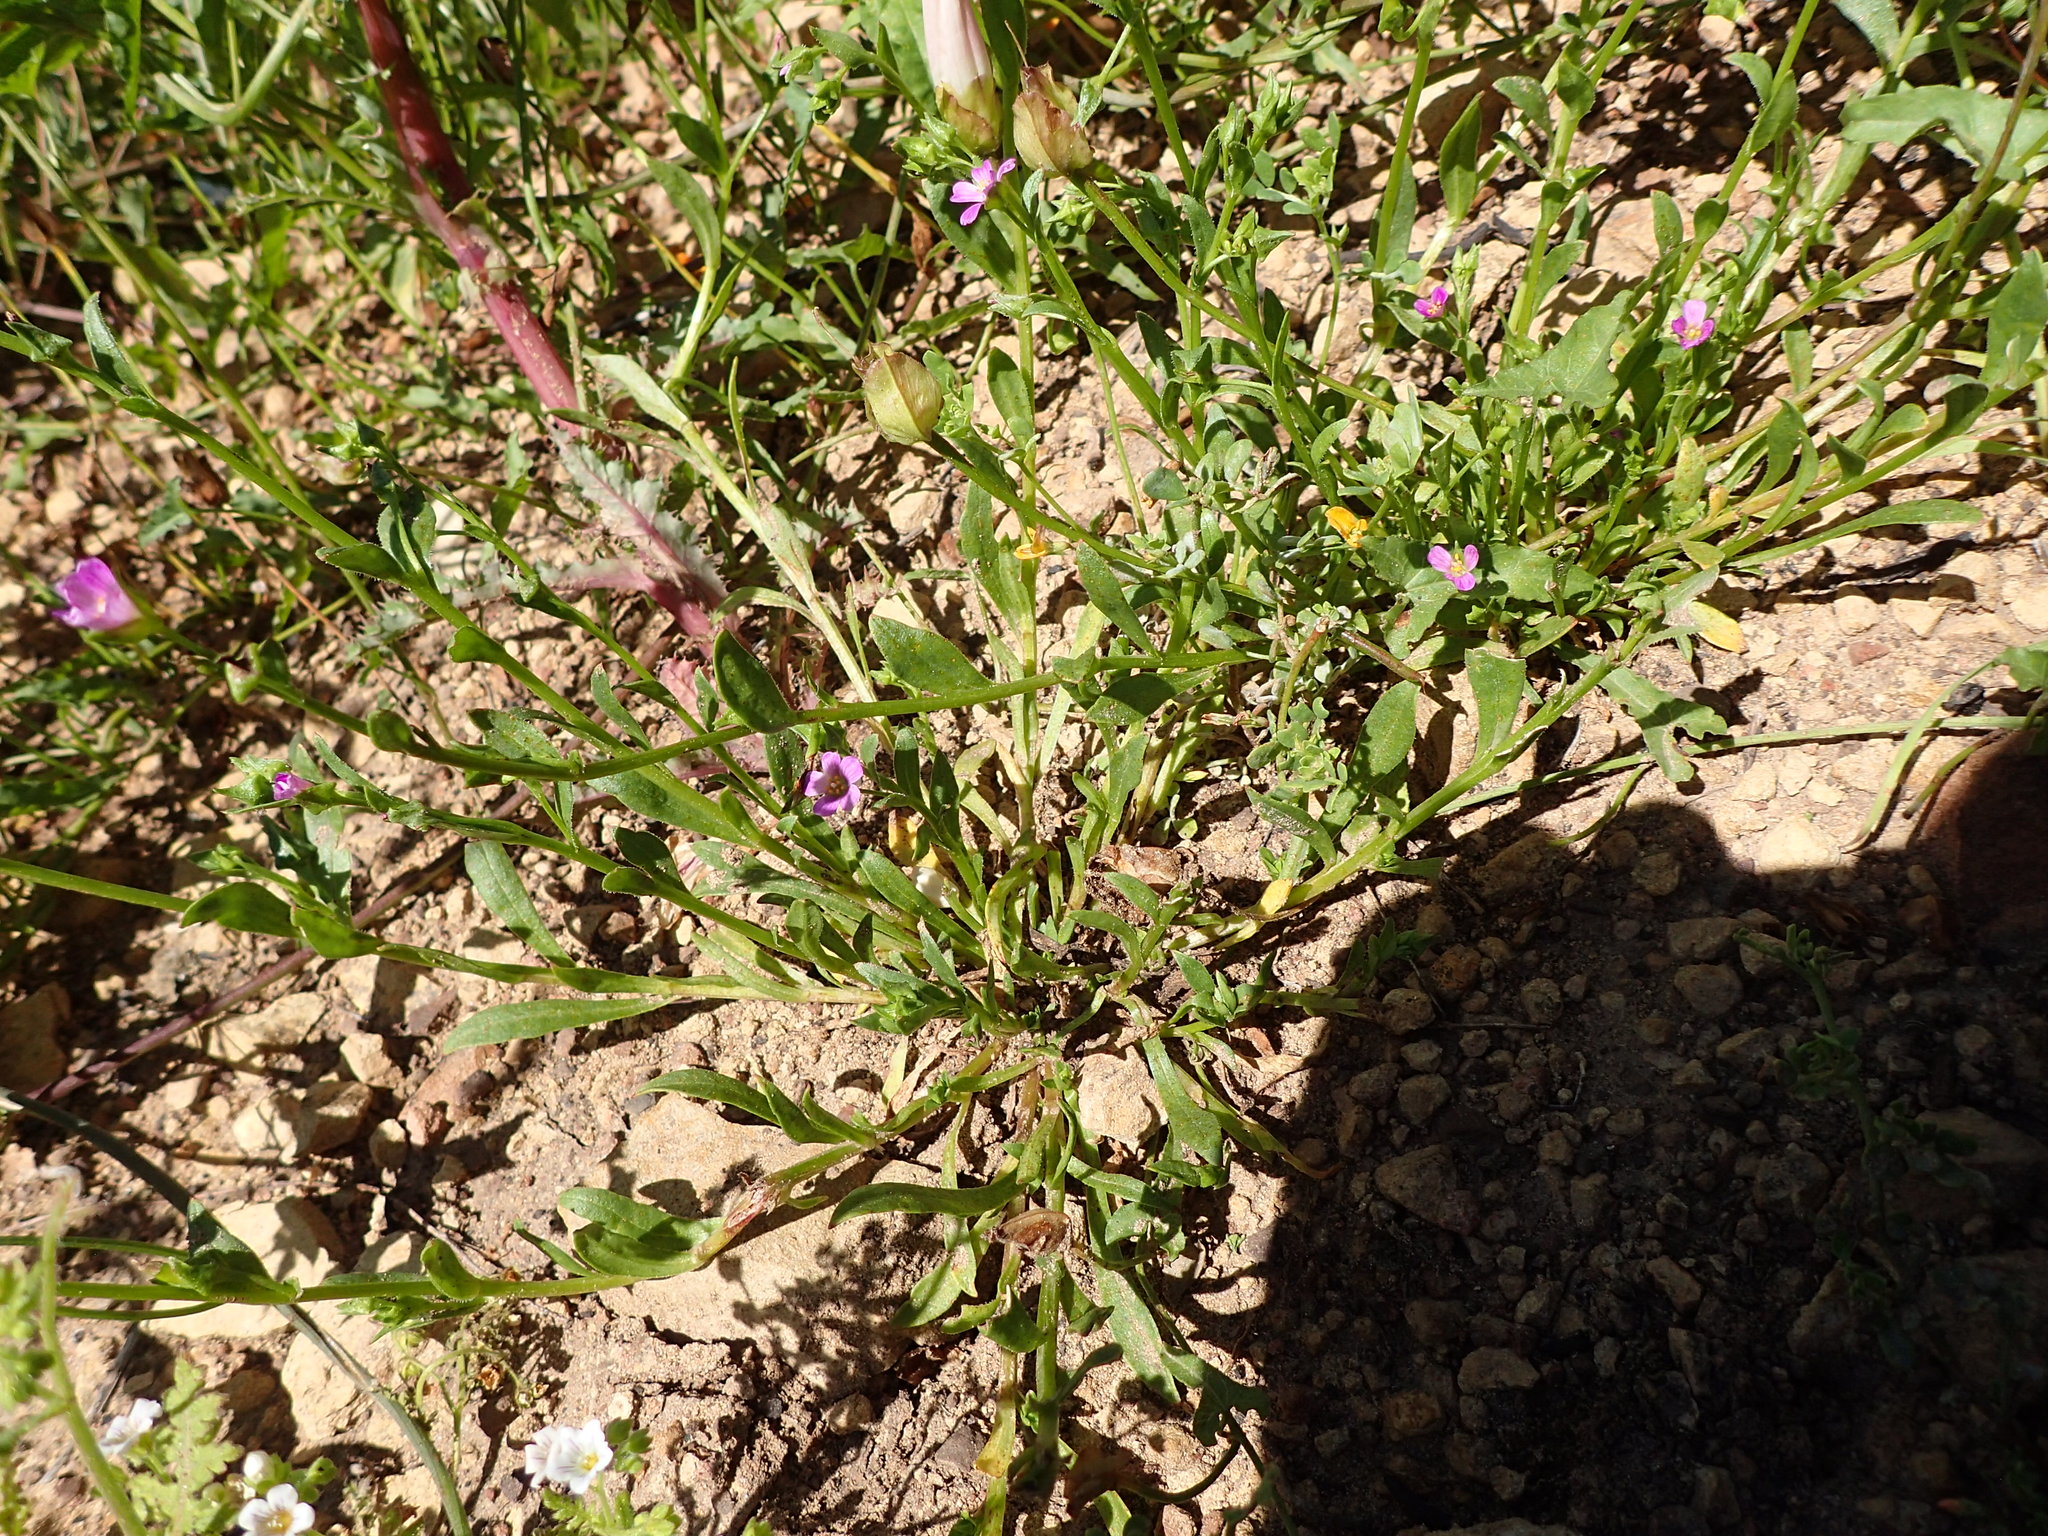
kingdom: Plantae
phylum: Tracheophyta
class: Magnoliopsida
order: Caryophyllales
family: Montiaceae
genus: Calandrinia
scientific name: Calandrinia breweri
